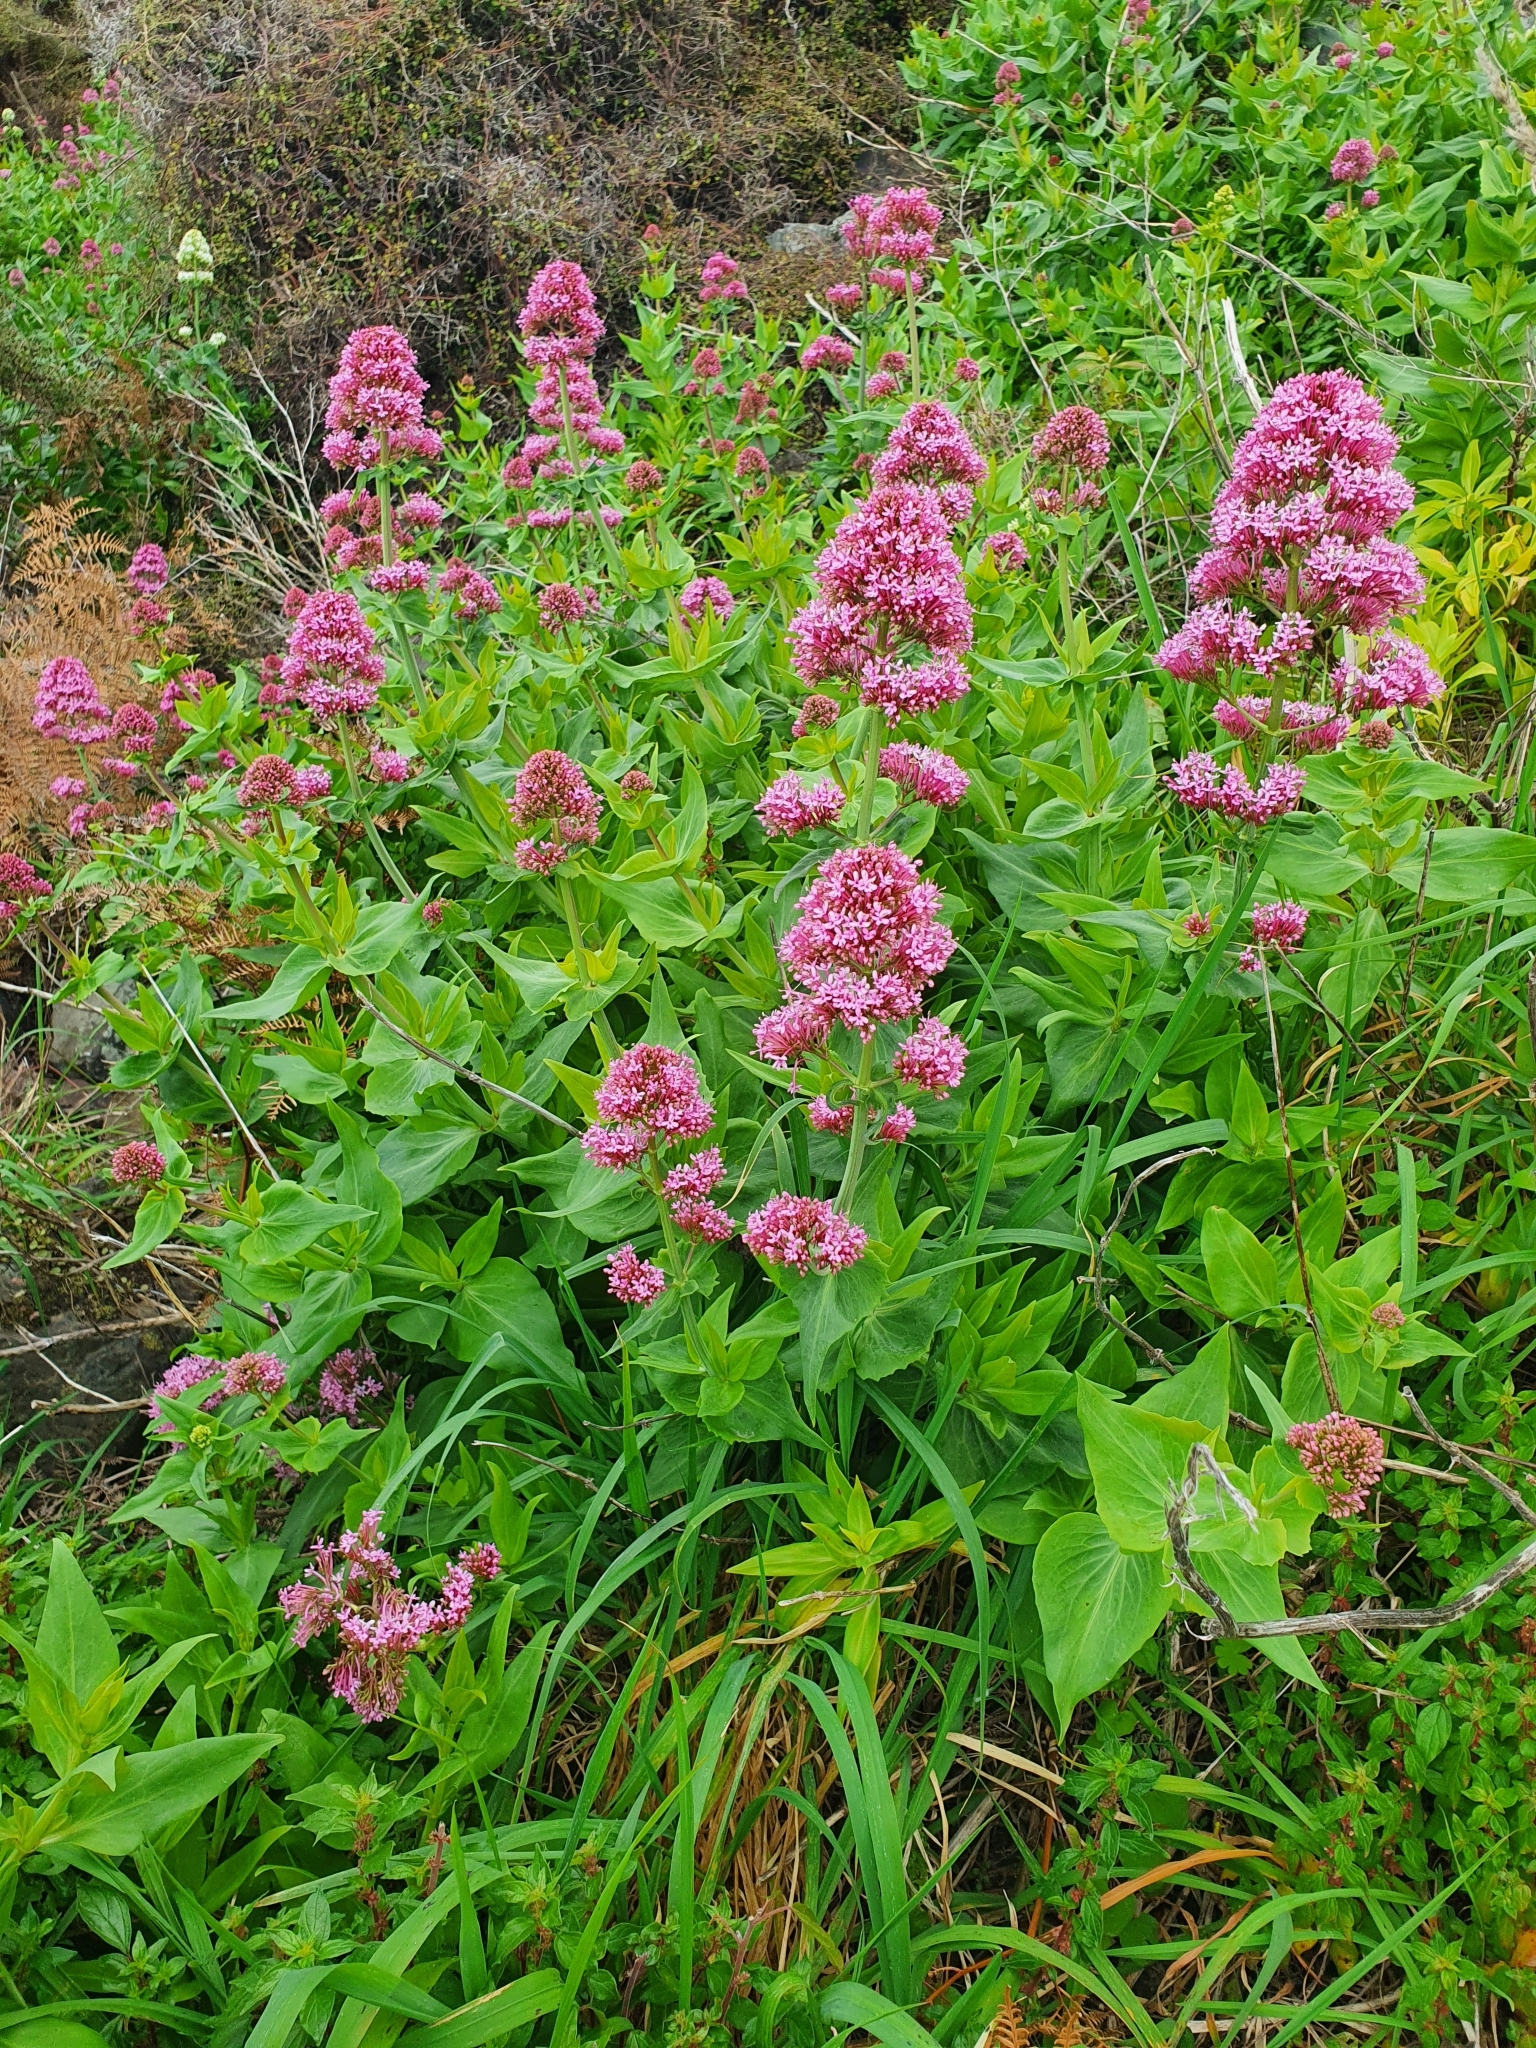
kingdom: Plantae
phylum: Tracheophyta
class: Magnoliopsida
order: Dipsacales
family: Caprifoliaceae
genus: Centranthus
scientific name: Centranthus ruber
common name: Red valerian
